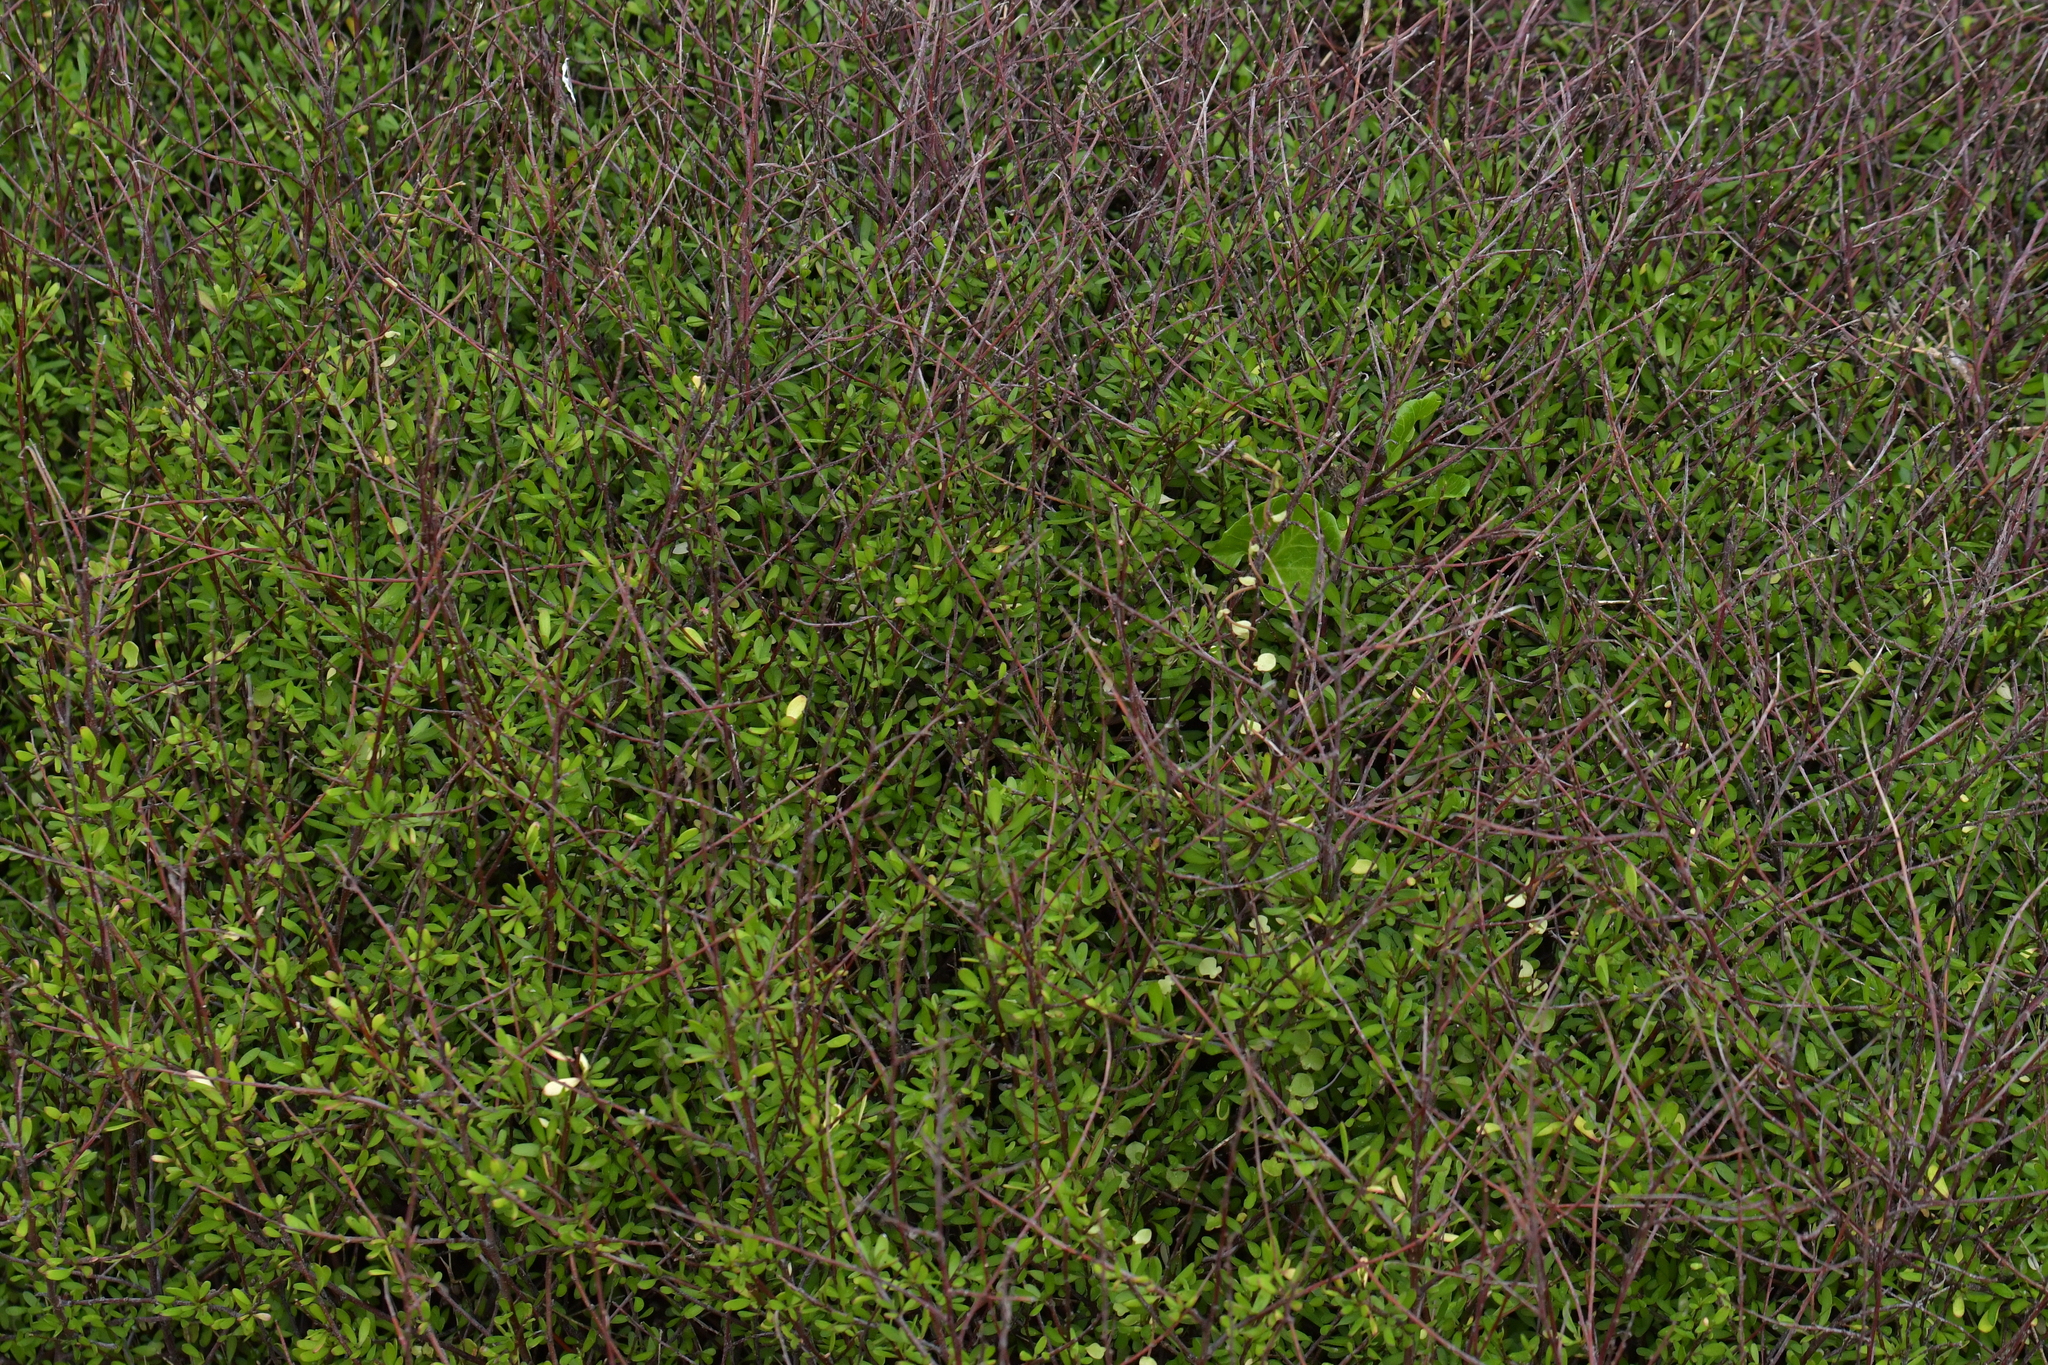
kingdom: Plantae
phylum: Tracheophyta
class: Magnoliopsida
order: Malvales
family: Malvaceae
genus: Plagianthus
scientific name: Plagianthus divaricatus
